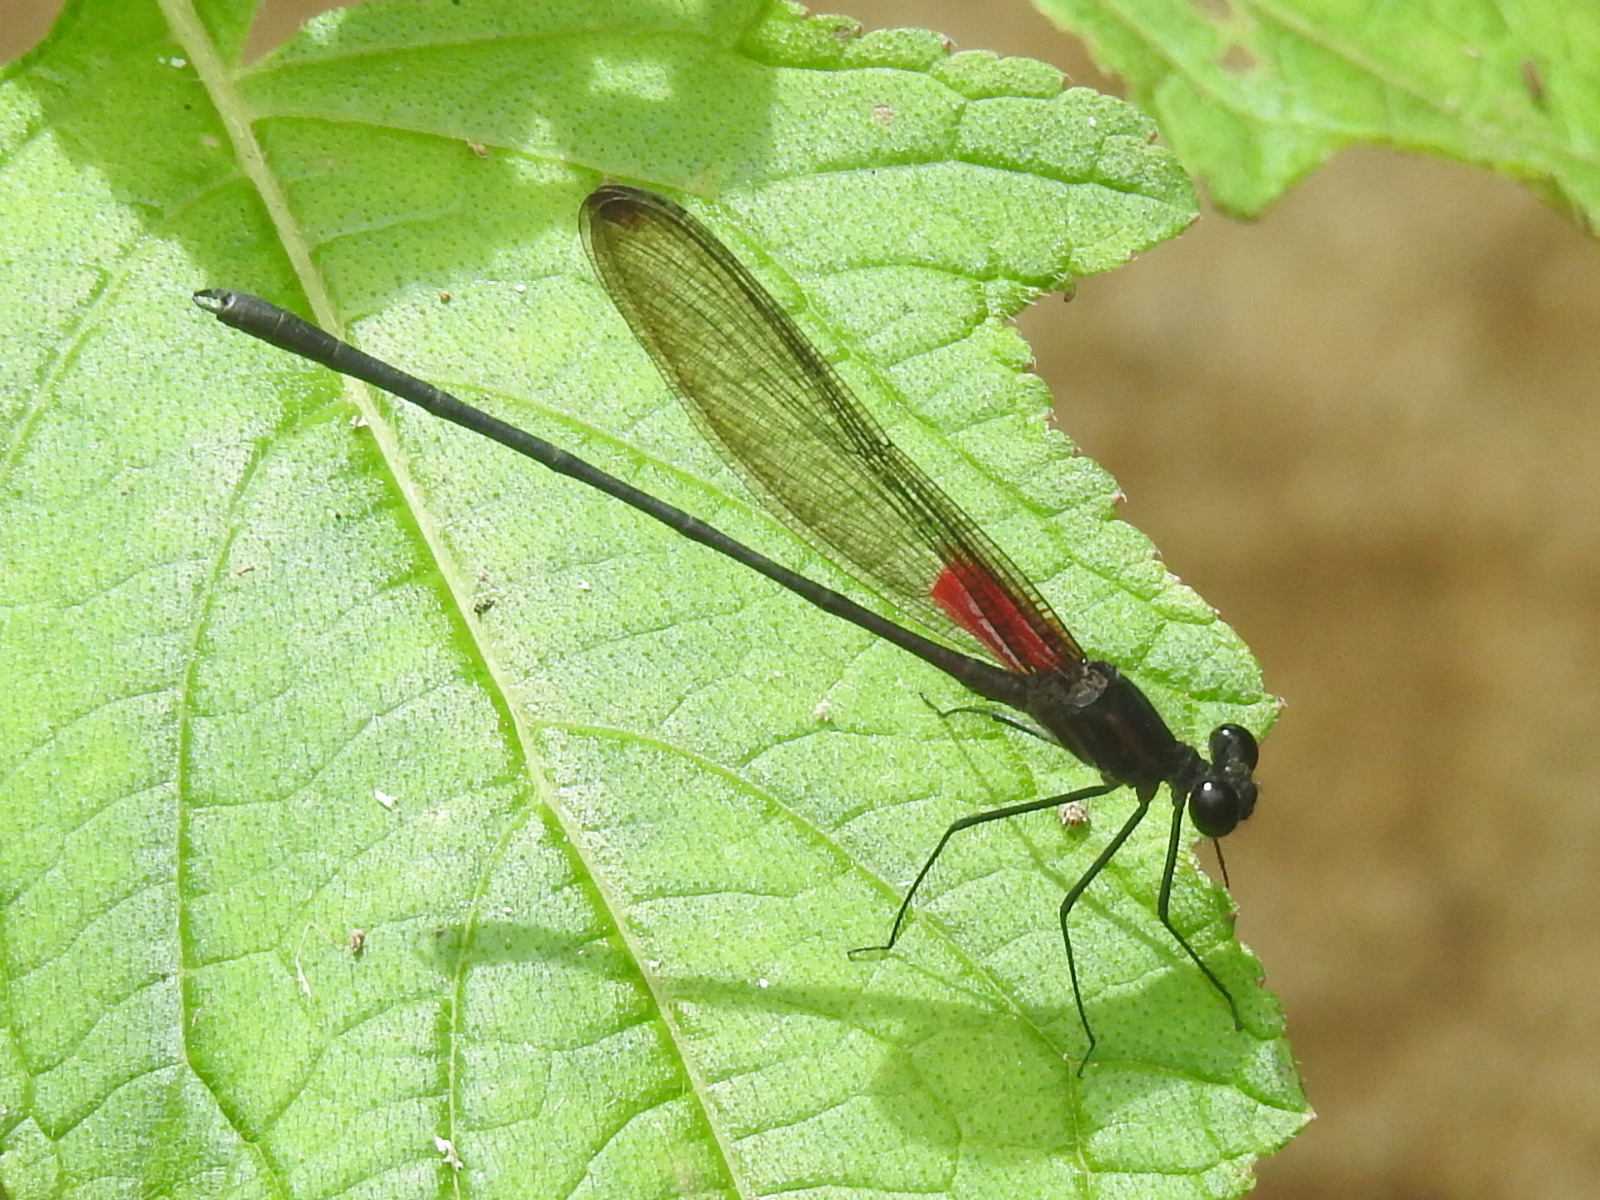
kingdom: Animalia
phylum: Arthropoda
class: Insecta
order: Odonata
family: Calopterygidae
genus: Hetaerina
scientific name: Hetaerina cruentata
